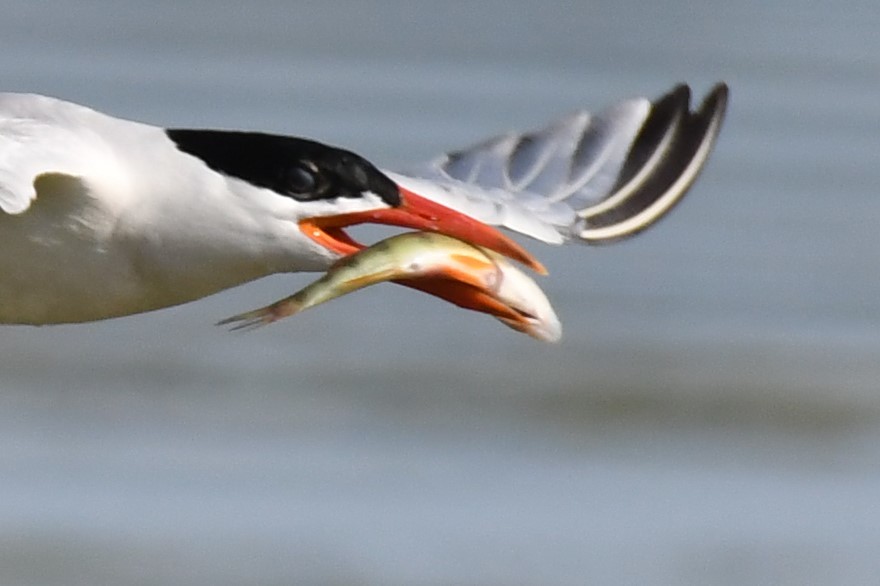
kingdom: Animalia
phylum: Chordata
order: Perciformes
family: Percidae
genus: Perca
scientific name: Perca flavescens
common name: Yellow perch
